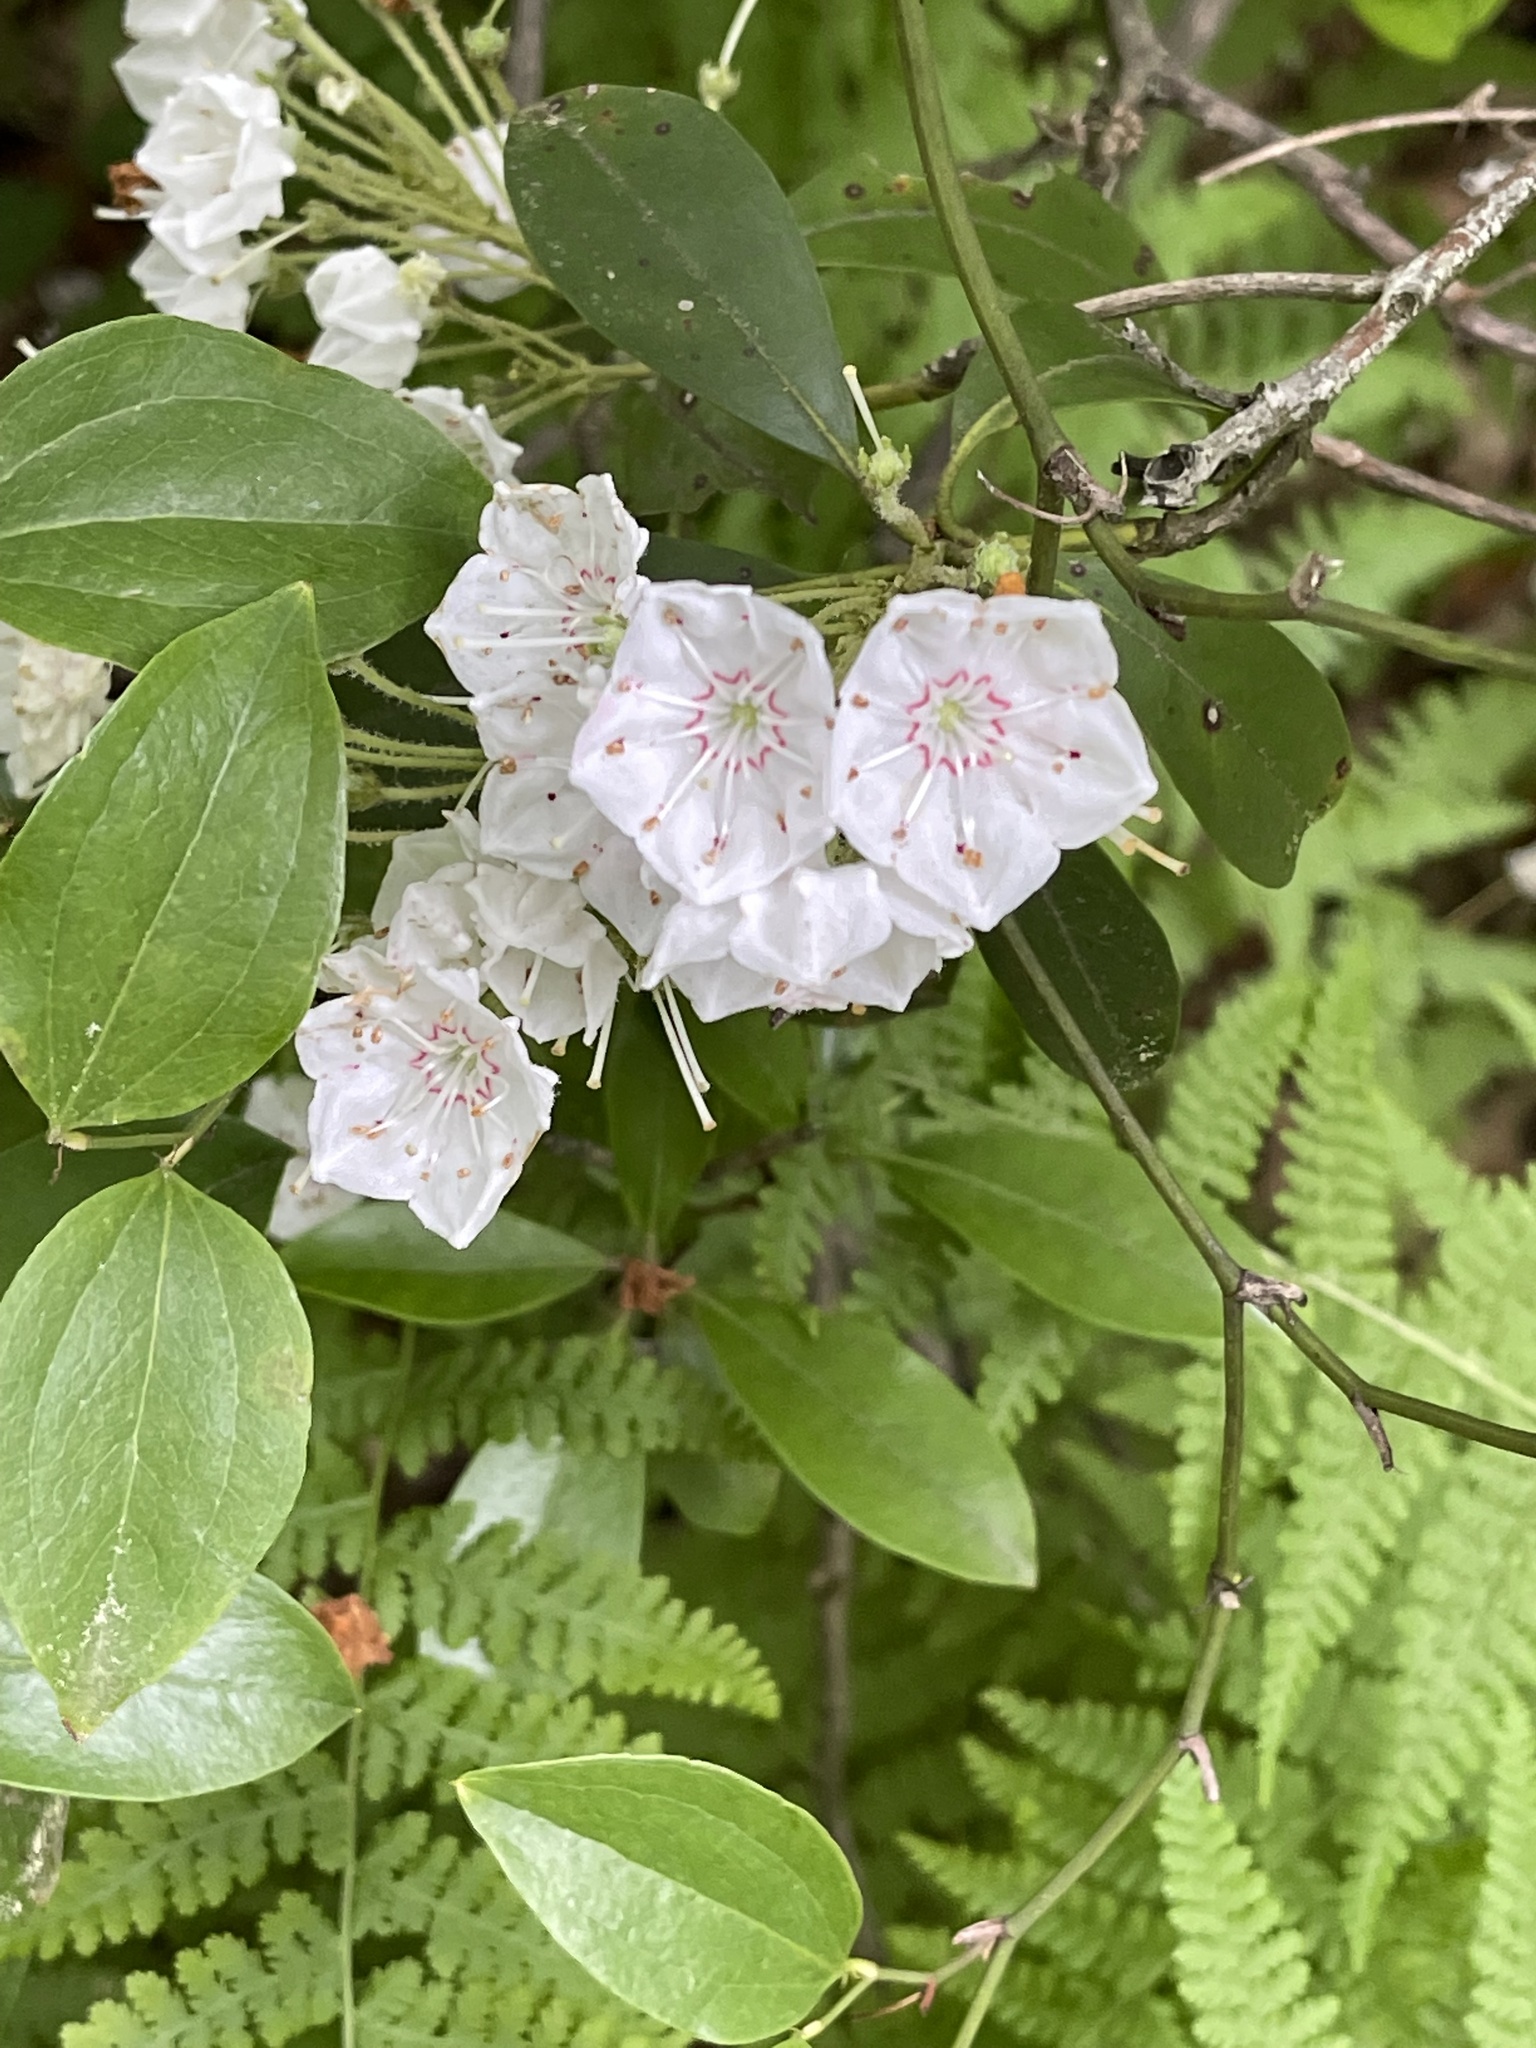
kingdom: Plantae
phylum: Tracheophyta
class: Magnoliopsida
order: Ericales
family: Ericaceae
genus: Kalmia
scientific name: Kalmia latifolia
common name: Mountain-laurel
